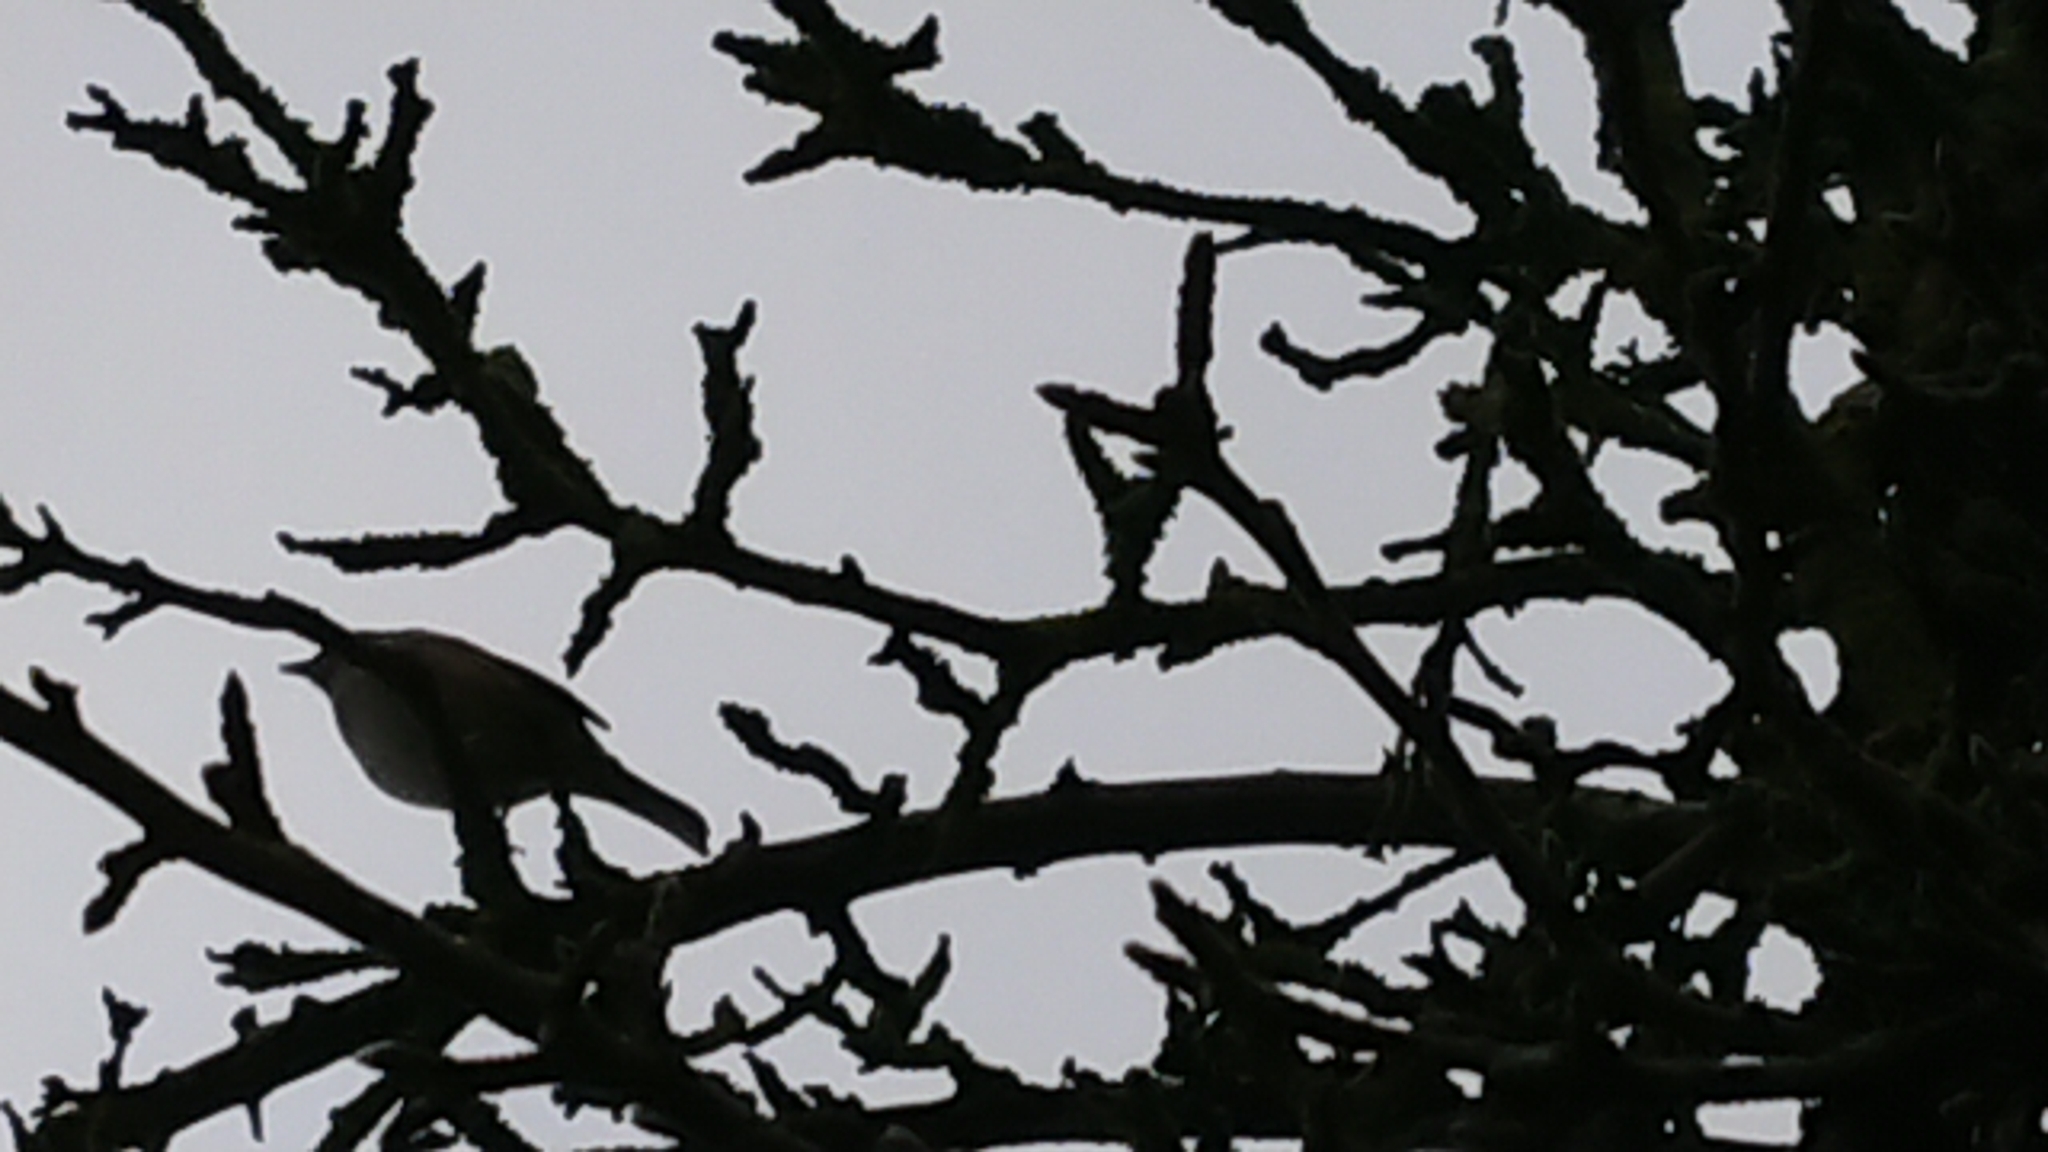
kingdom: Animalia
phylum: Chordata
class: Aves
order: Passeriformes
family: Prunellidae
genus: Prunella
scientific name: Prunella modularis
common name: Dunnock
